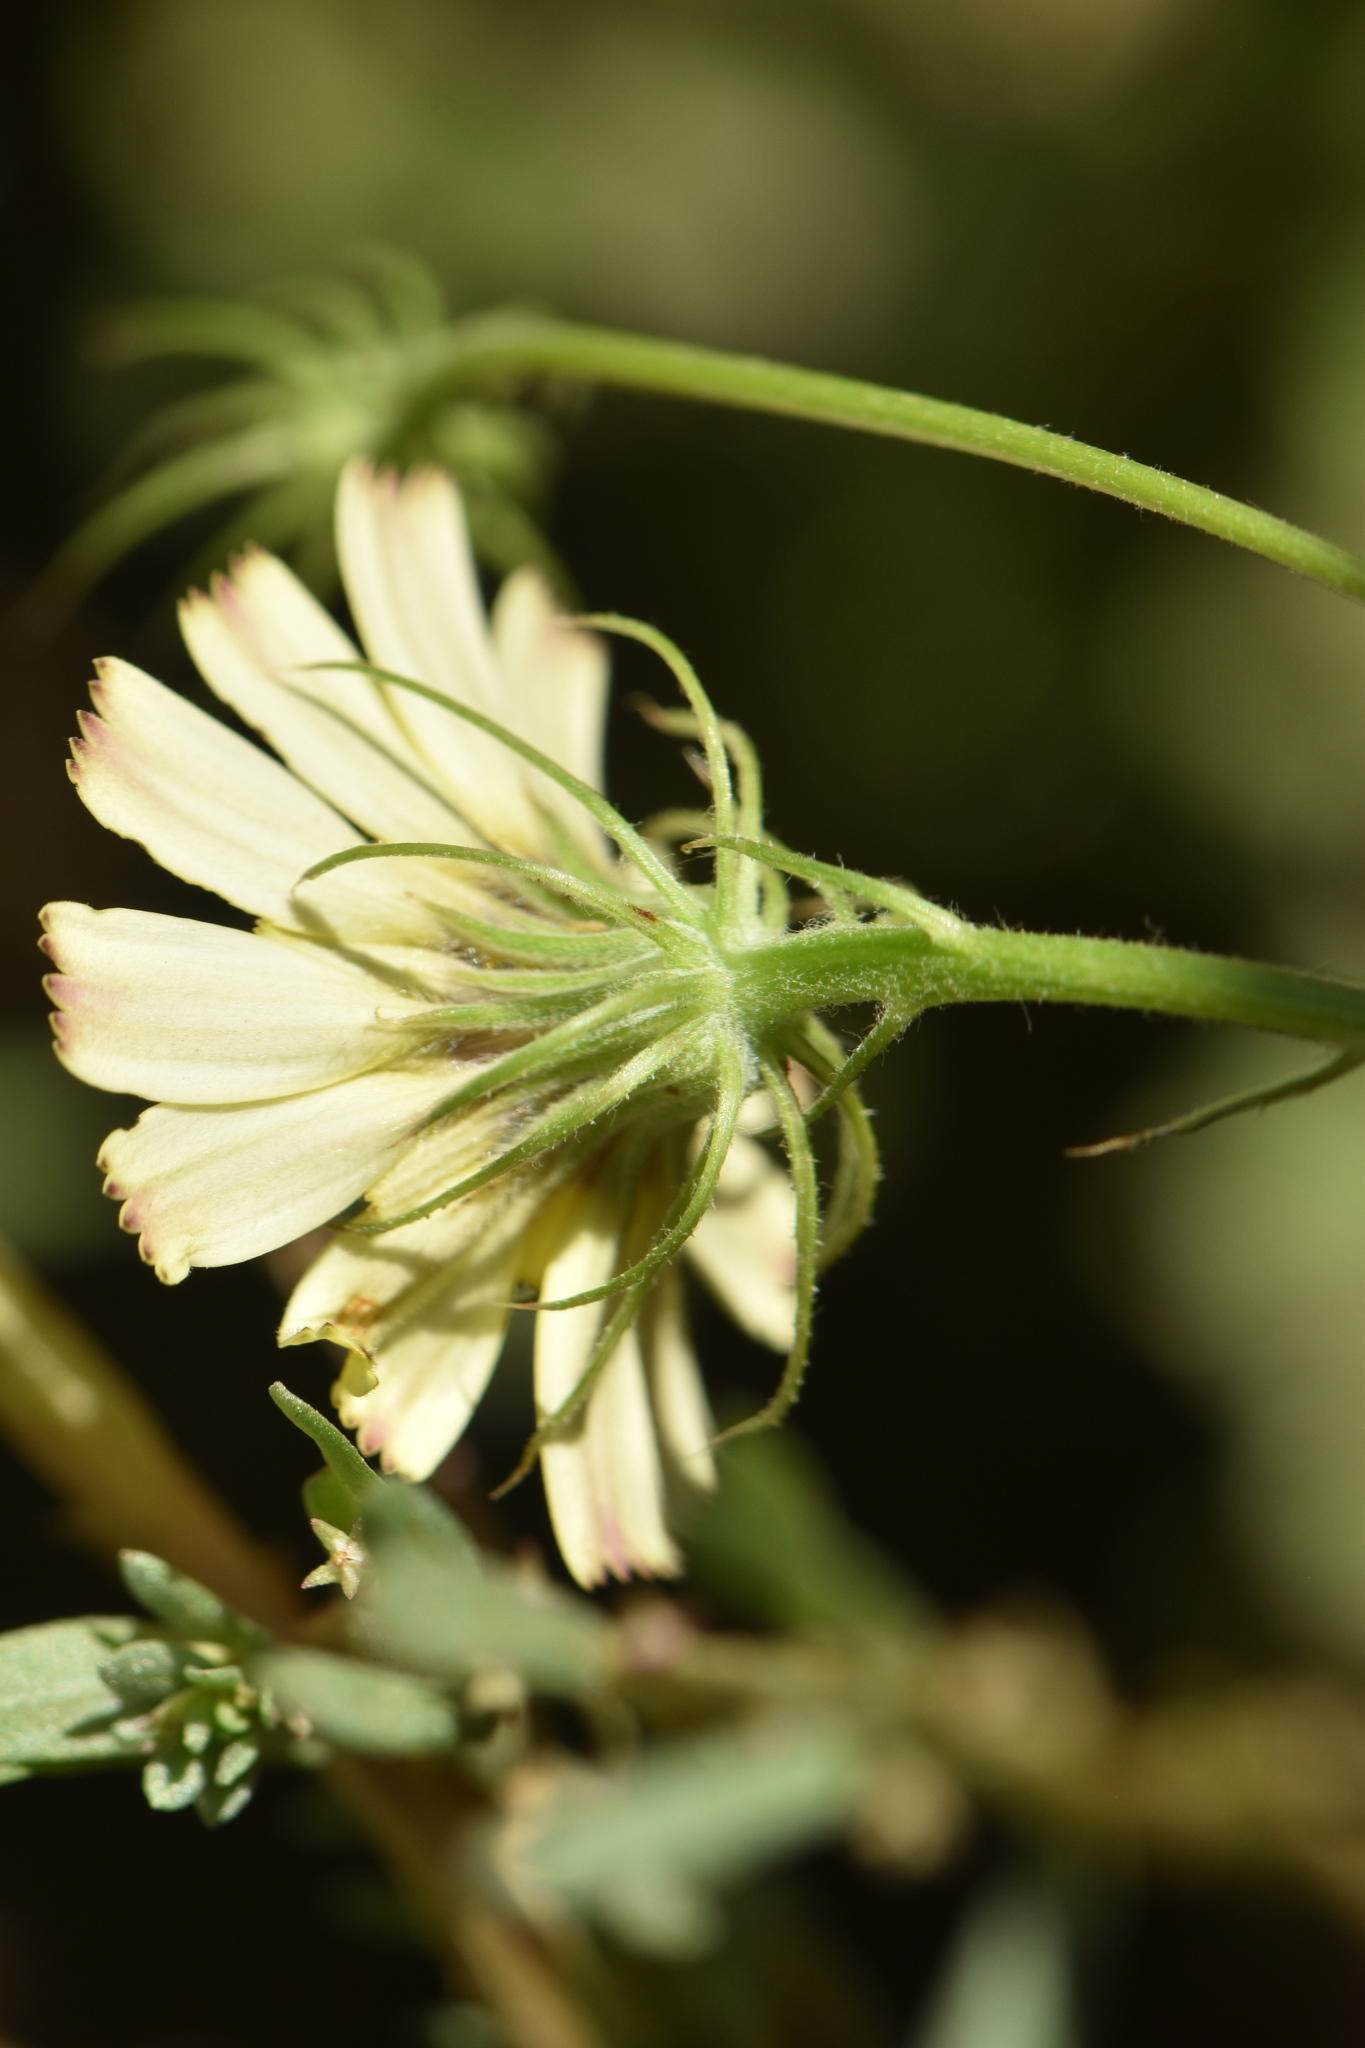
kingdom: Plantae
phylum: Tracheophyta
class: Magnoliopsida
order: Asterales
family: Asteraceae
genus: Tolpis
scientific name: Tolpis barbata
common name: Yellow hawkweed
